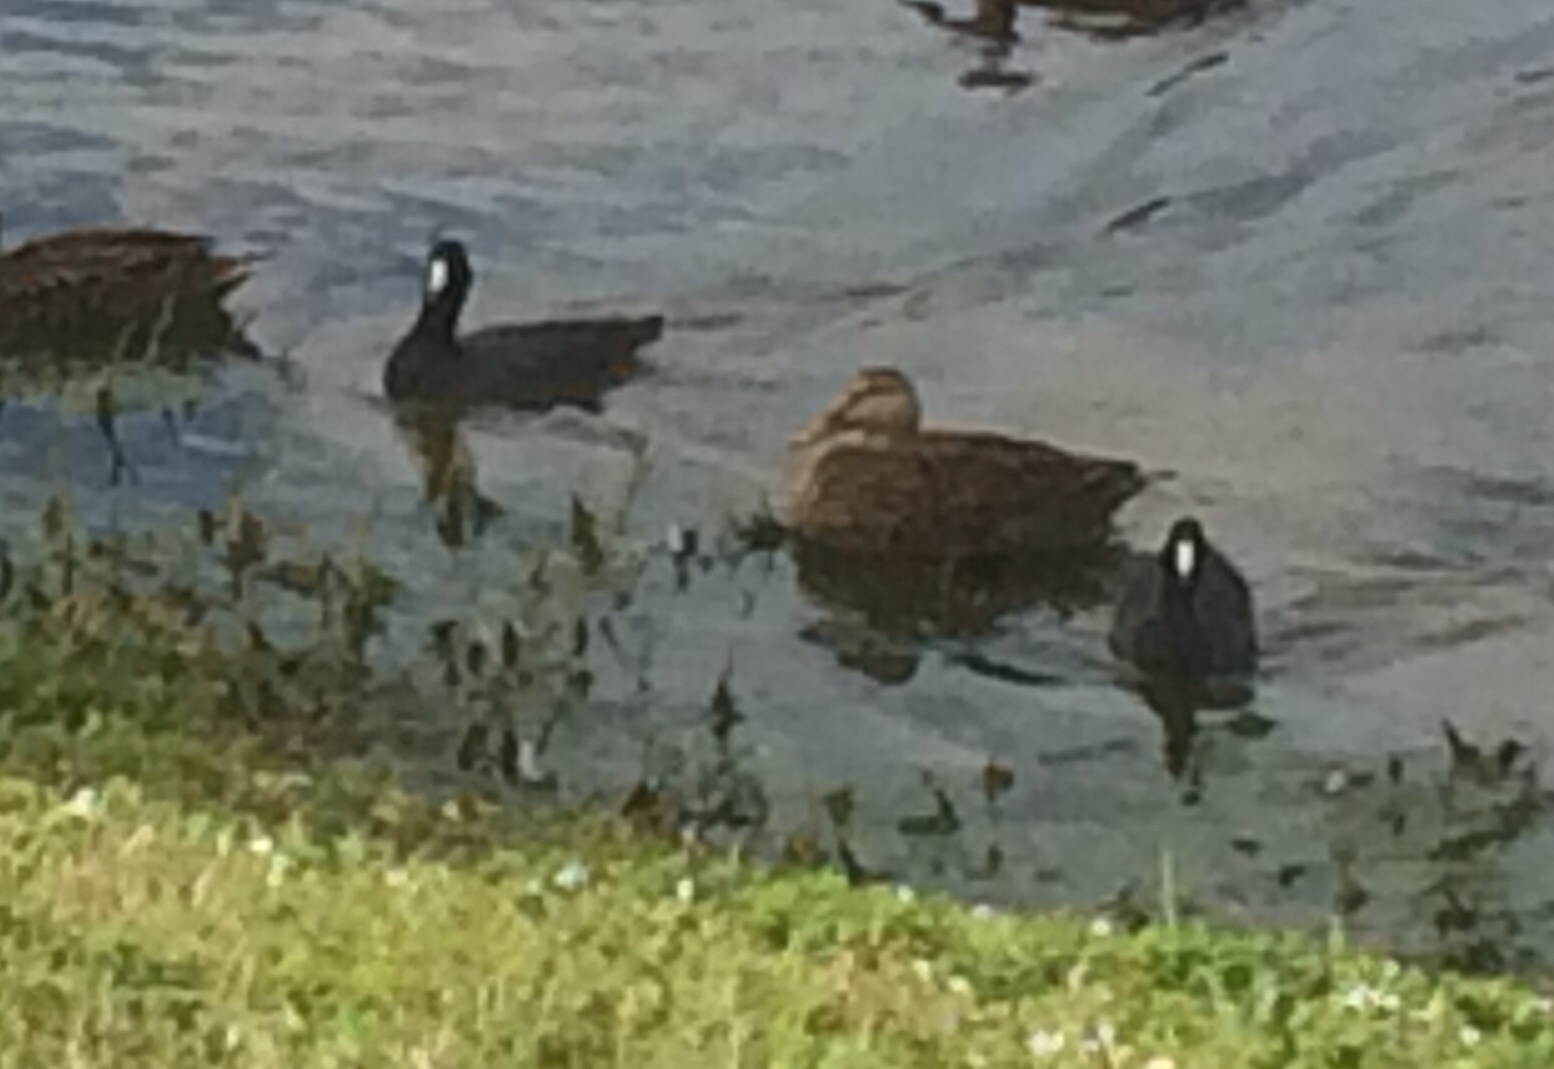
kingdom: Animalia
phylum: Chordata
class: Aves
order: Gruiformes
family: Rallidae
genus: Fulica
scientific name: Fulica americana
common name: American coot
